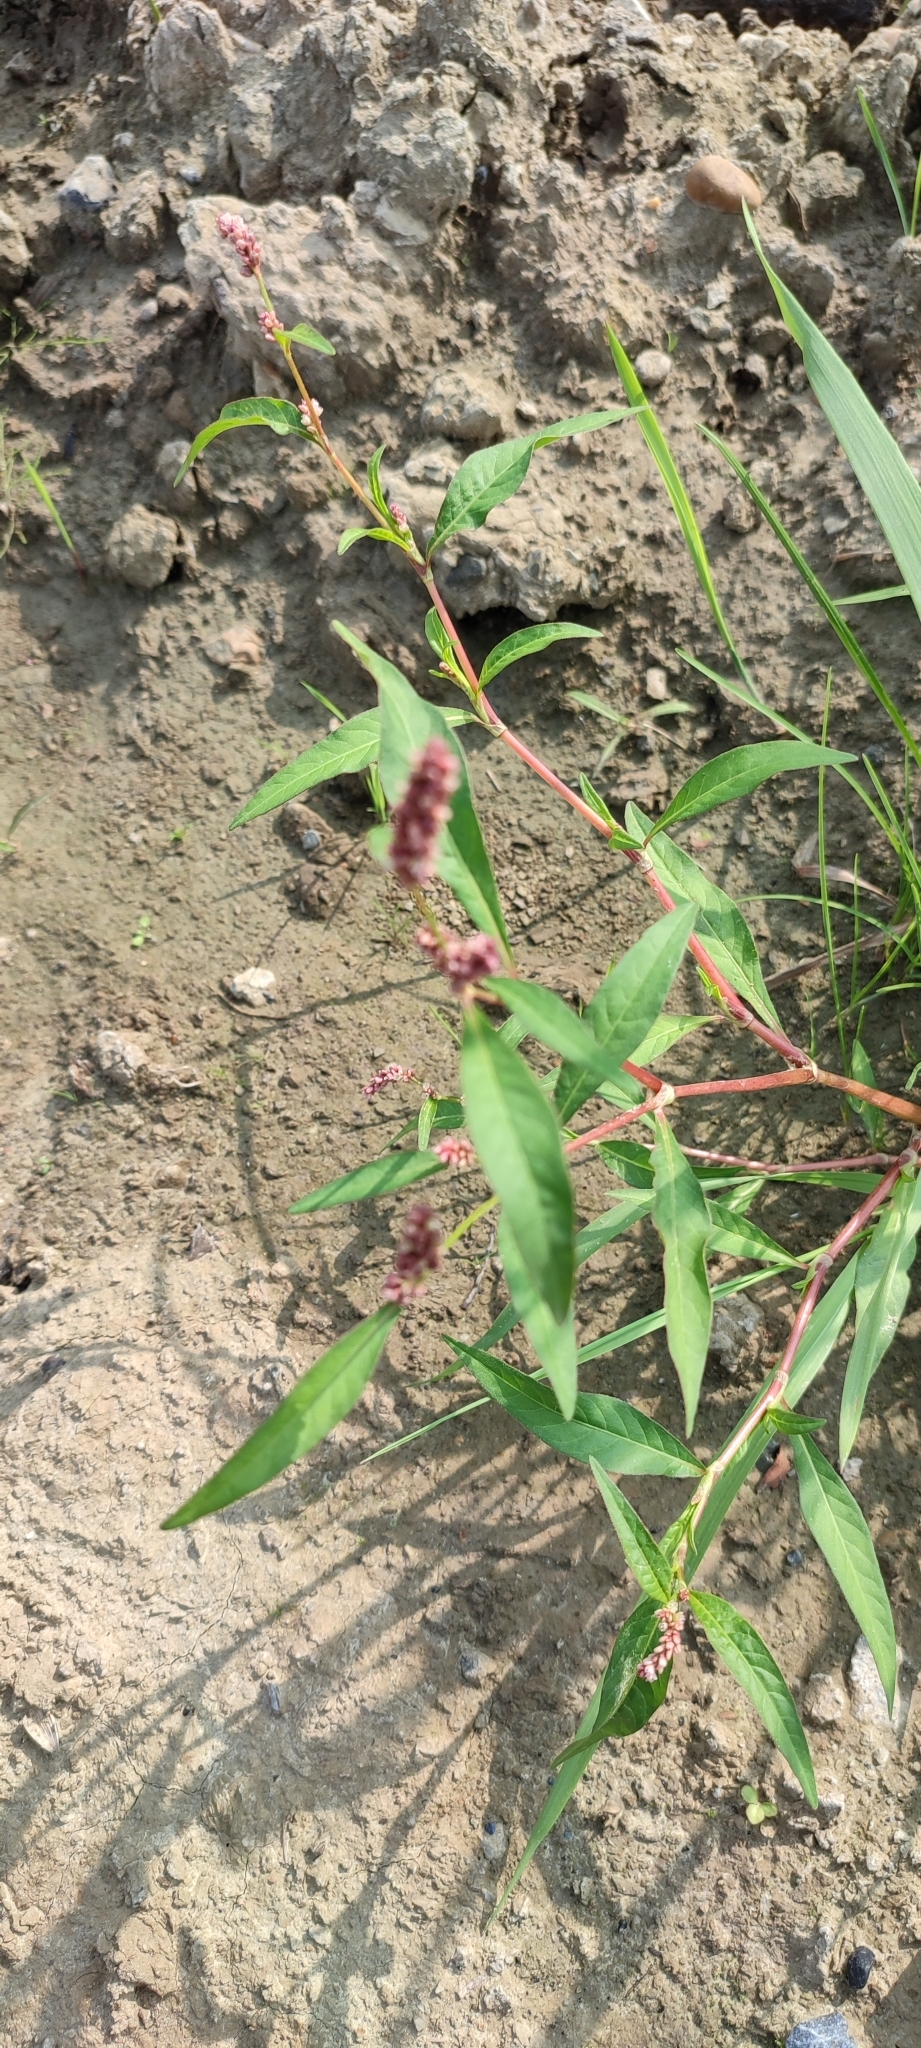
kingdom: Plantae
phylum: Tracheophyta
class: Magnoliopsida
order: Caryophyllales
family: Polygonaceae
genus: Persicaria
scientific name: Persicaria lapathifolia
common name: Curlytop knotweed
